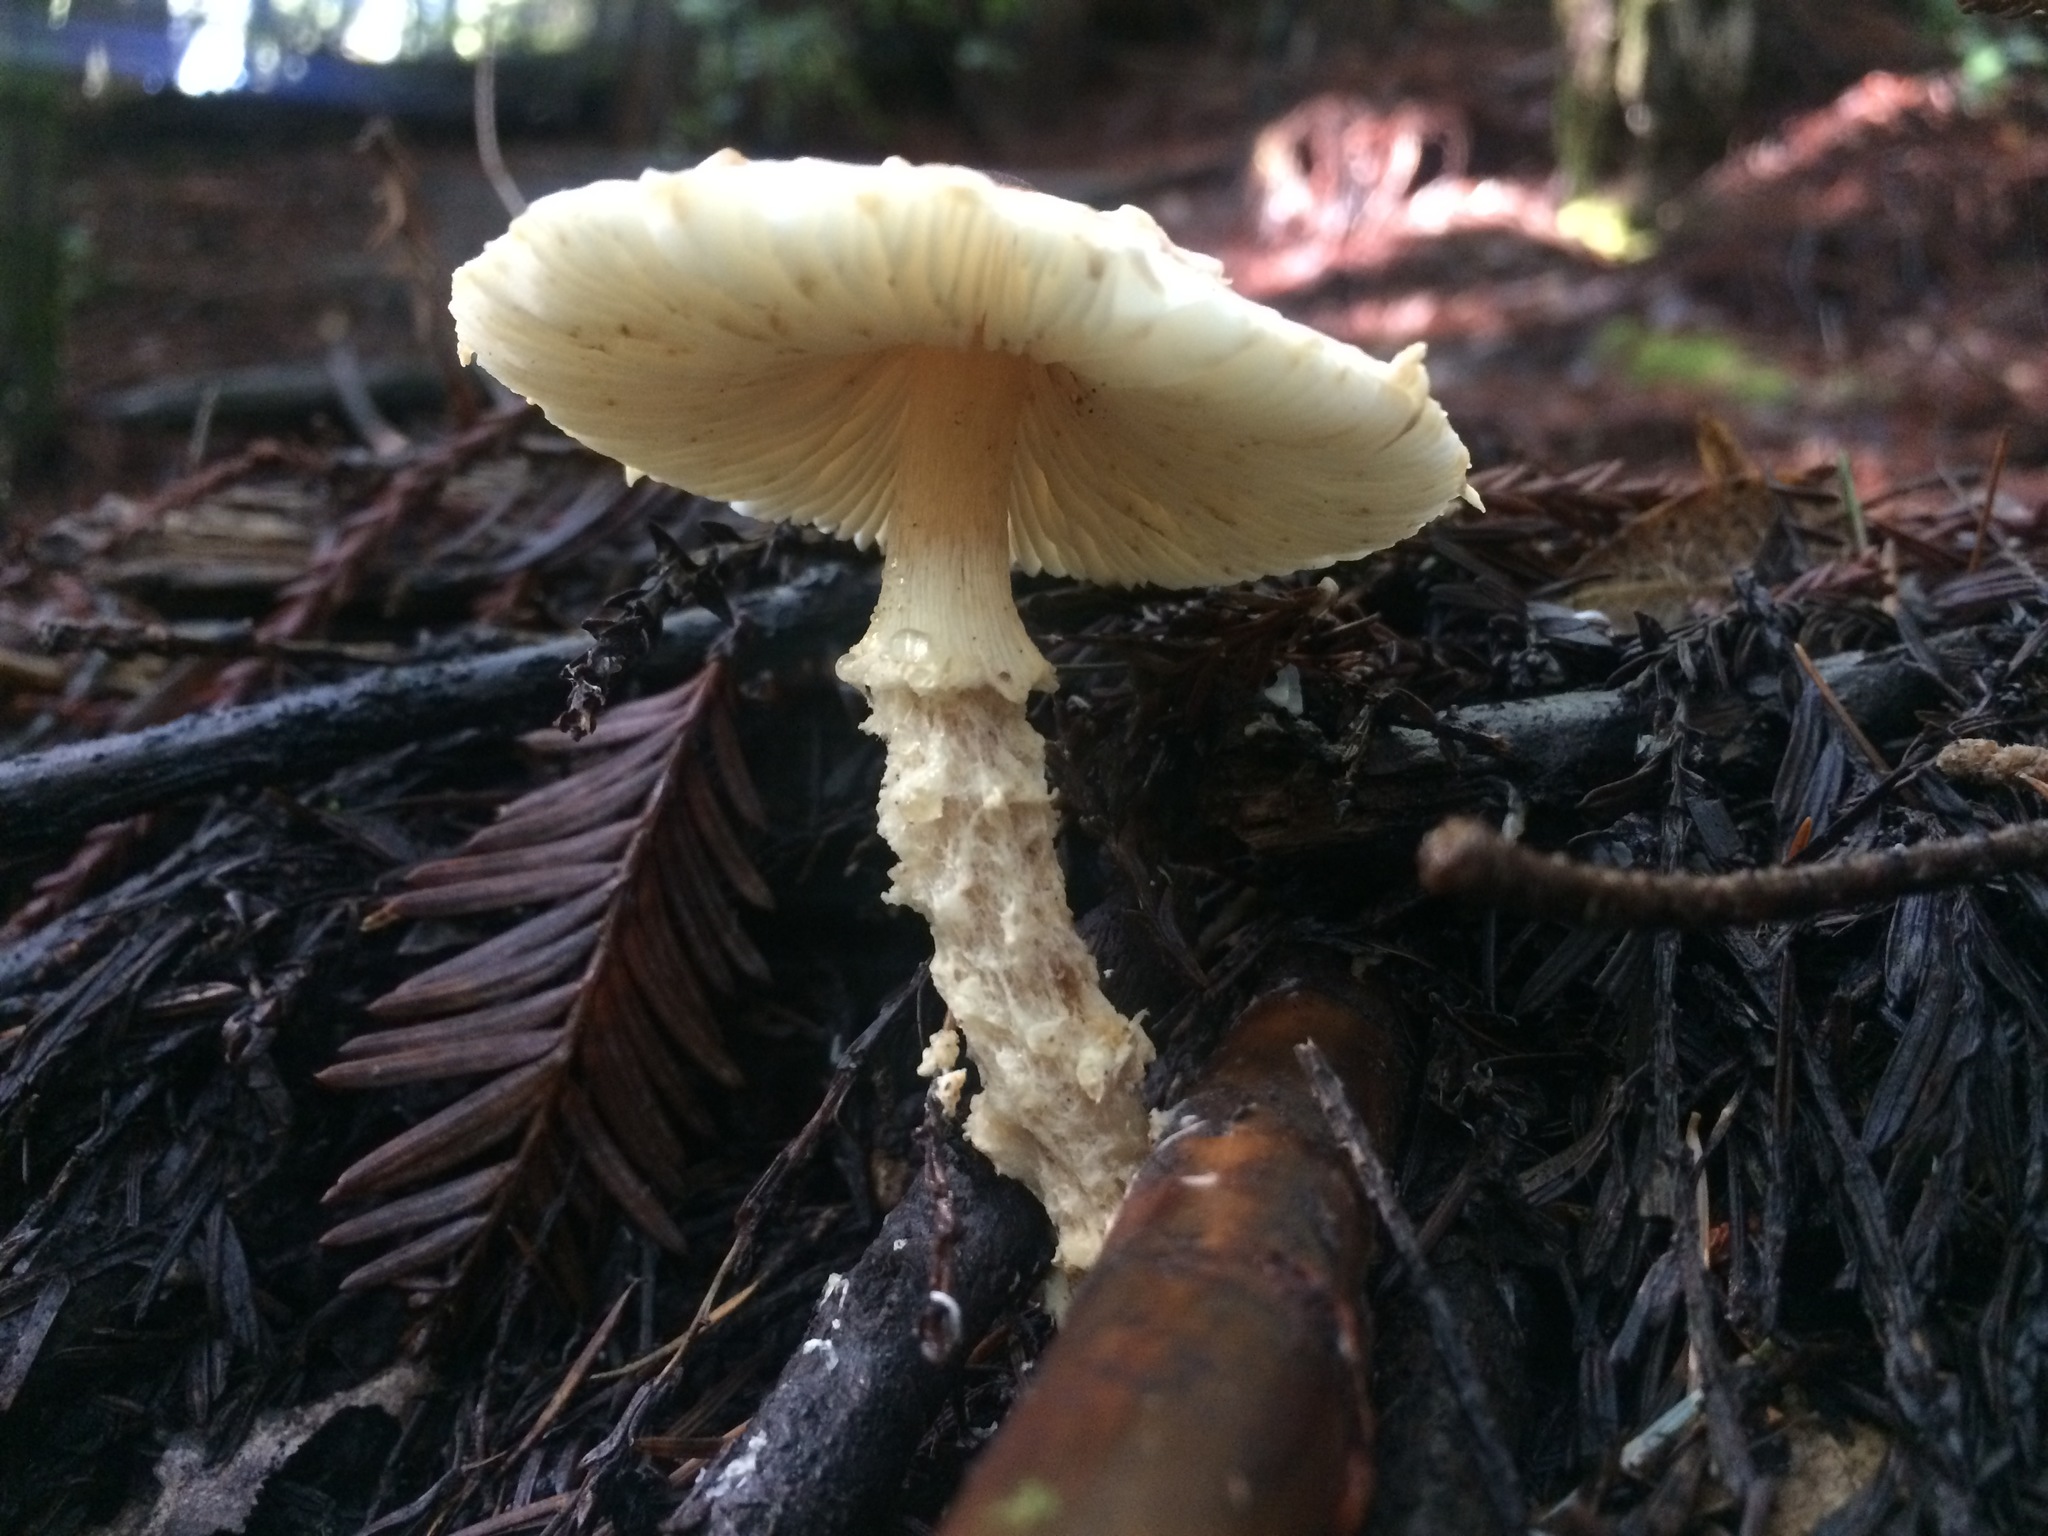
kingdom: Fungi
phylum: Basidiomycota
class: Agaricomycetes
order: Agaricales
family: Agaricaceae
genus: Lepiota
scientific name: Lepiota magnispora
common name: Yellowfoot dapperling
